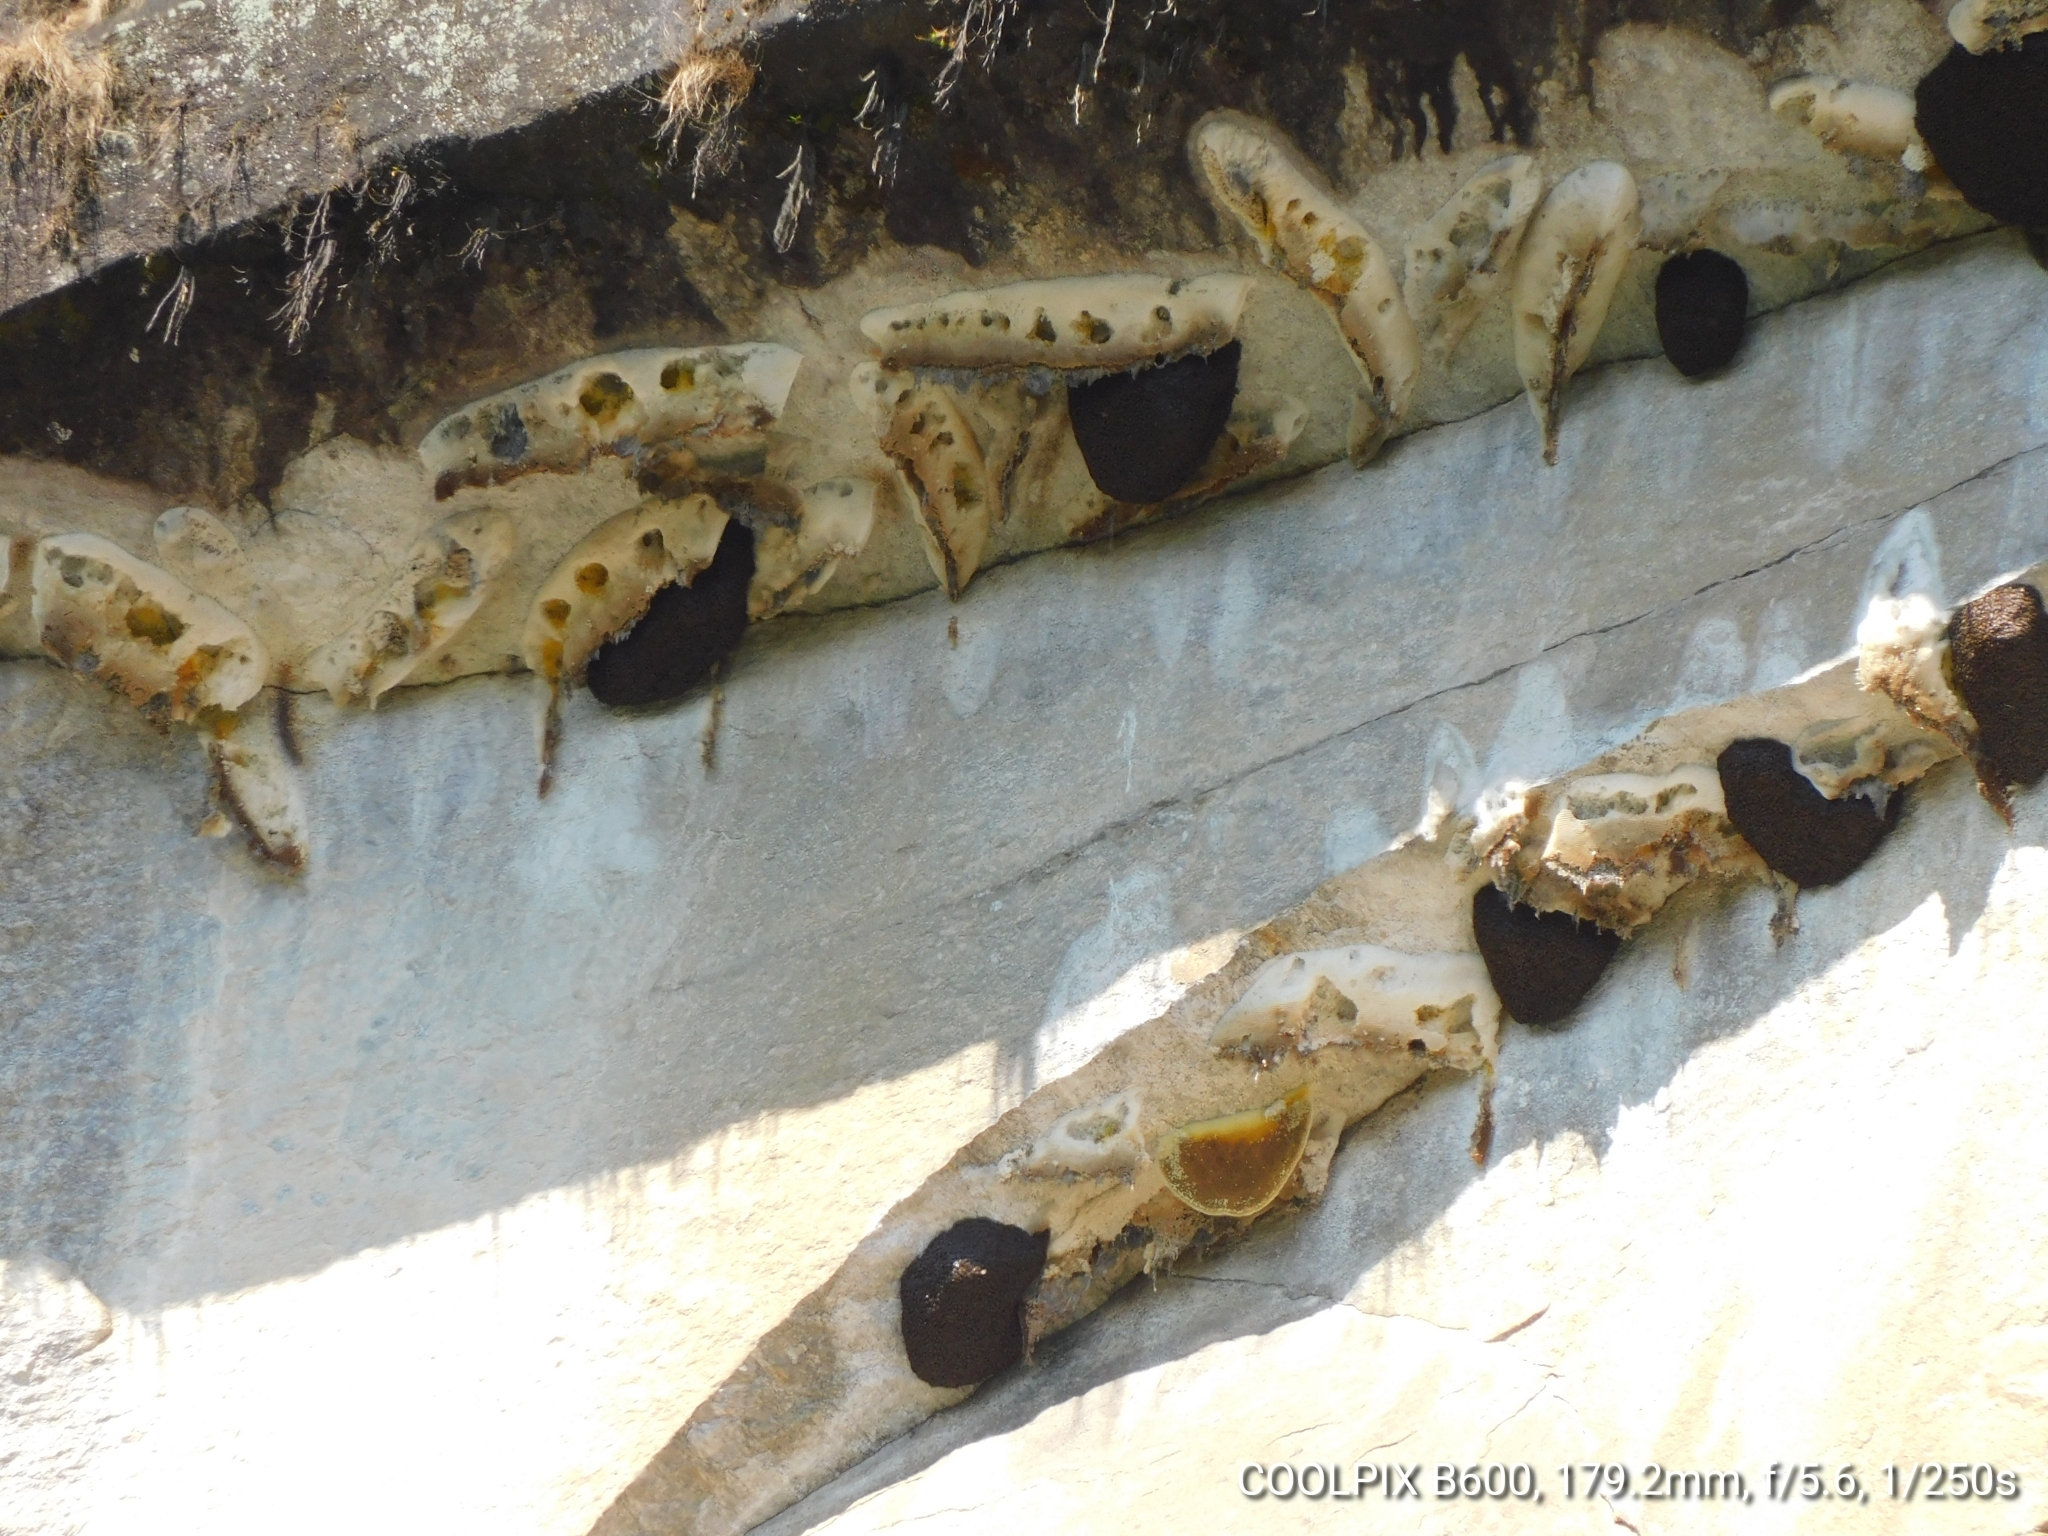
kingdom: Animalia
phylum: Arthropoda
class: Insecta
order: Hymenoptera
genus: Megapis
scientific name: Megapis
